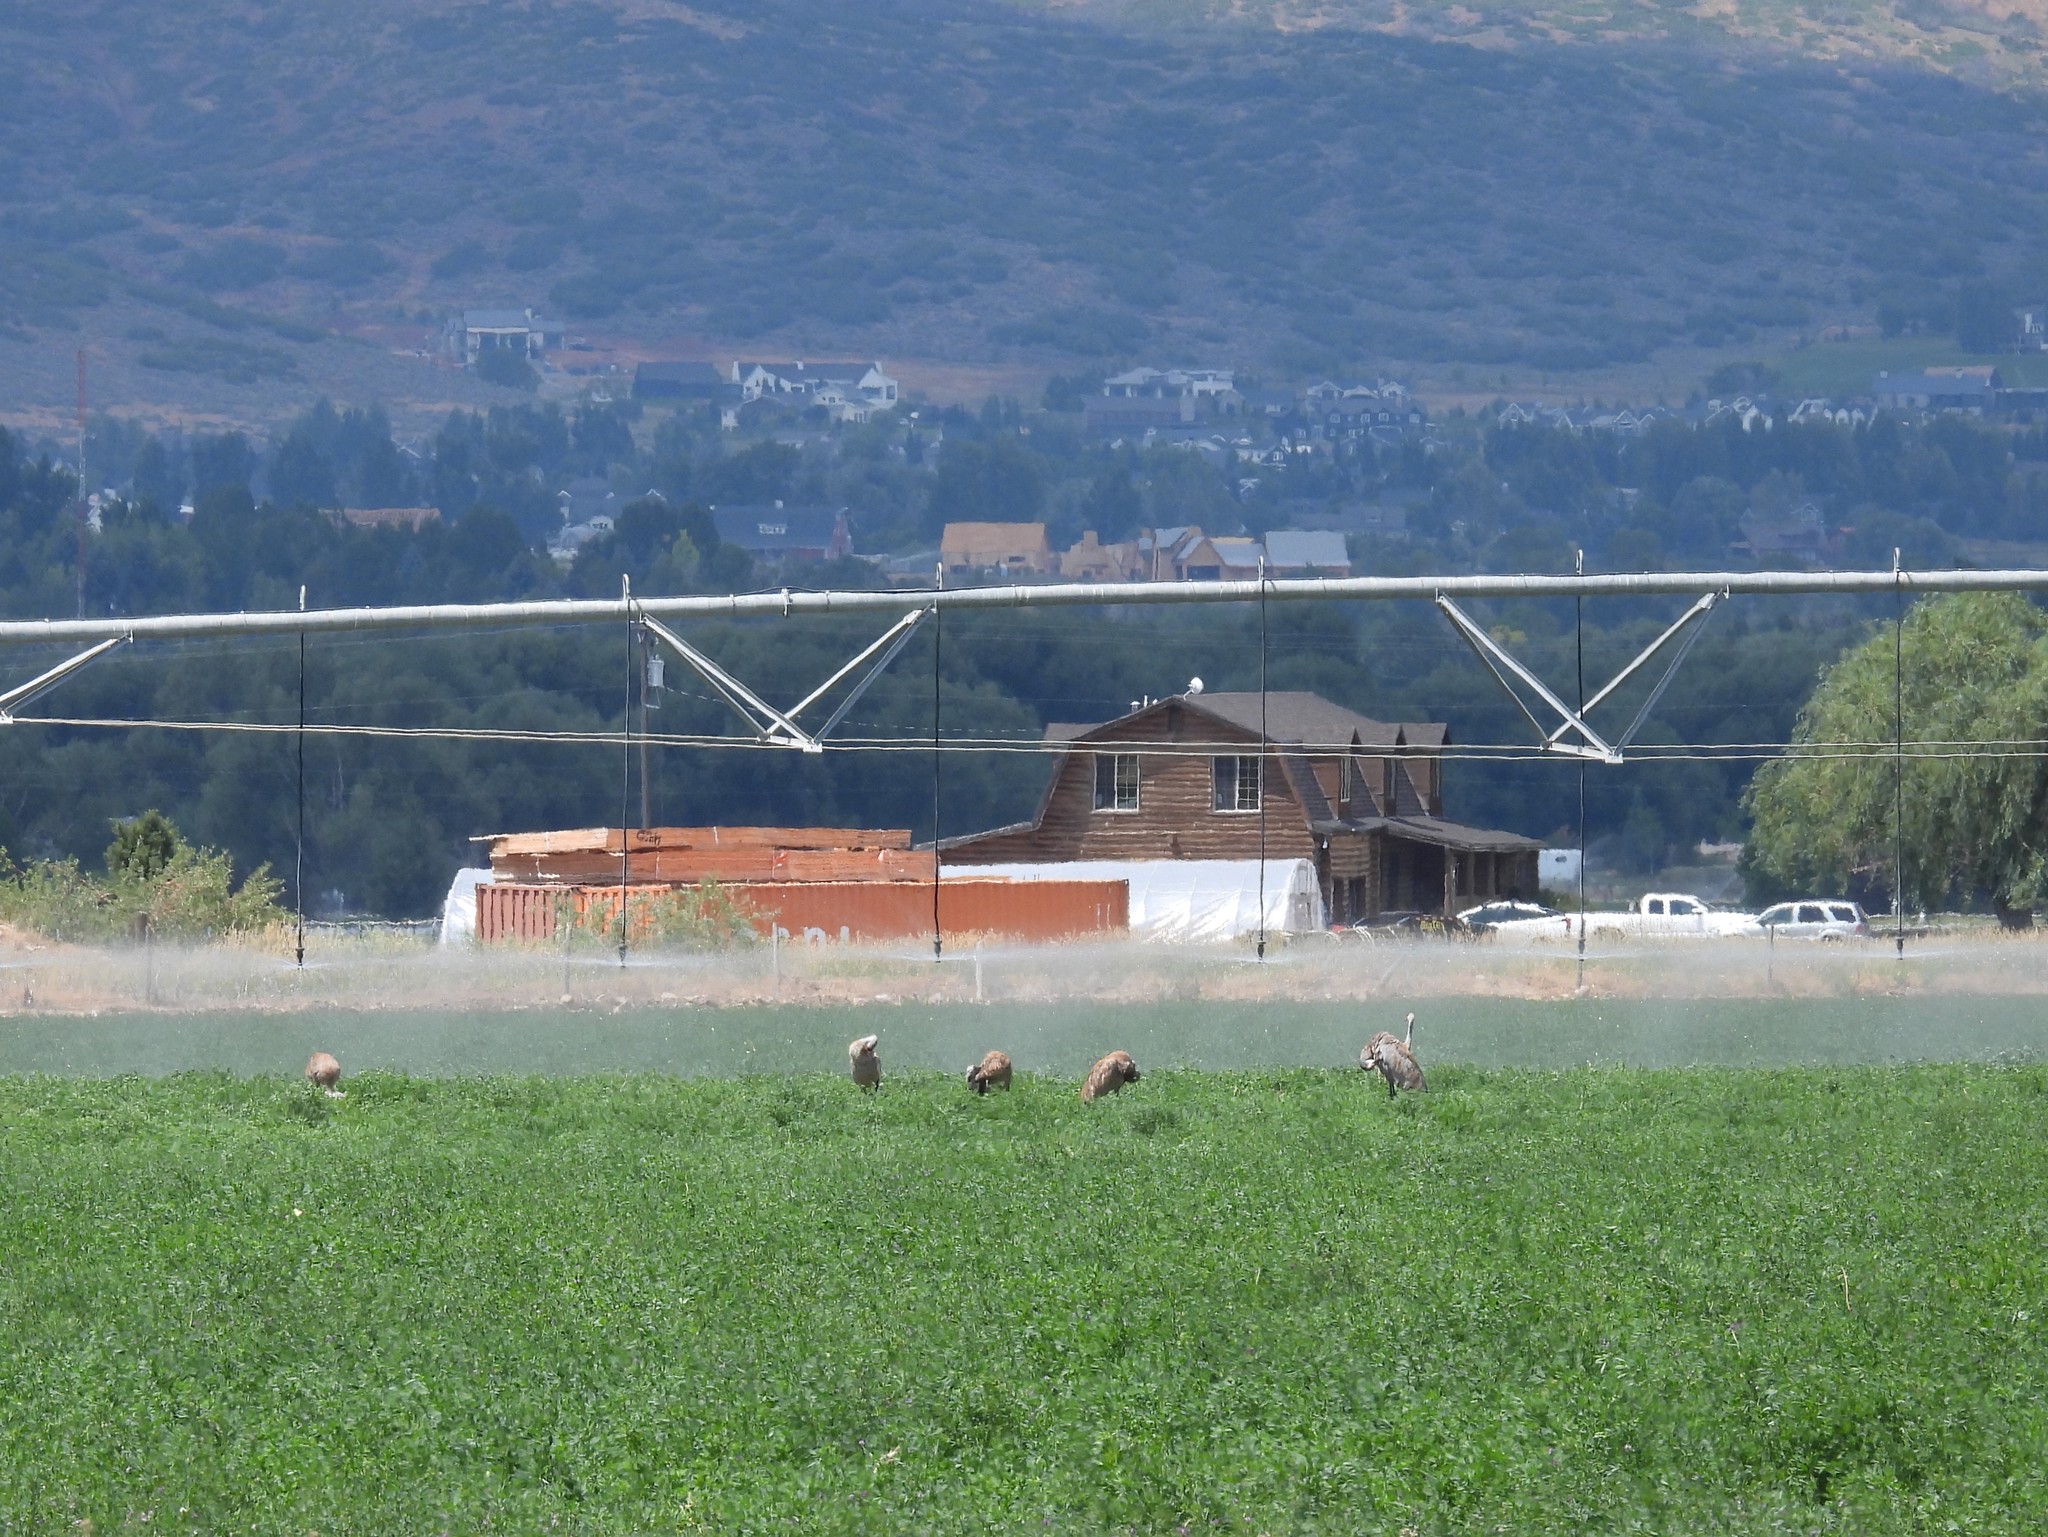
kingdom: Animalia
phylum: Chordata
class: Aves
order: Gruiformes
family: Gruidae
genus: Grus
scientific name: Grus canadensis
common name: Sandhill crane
